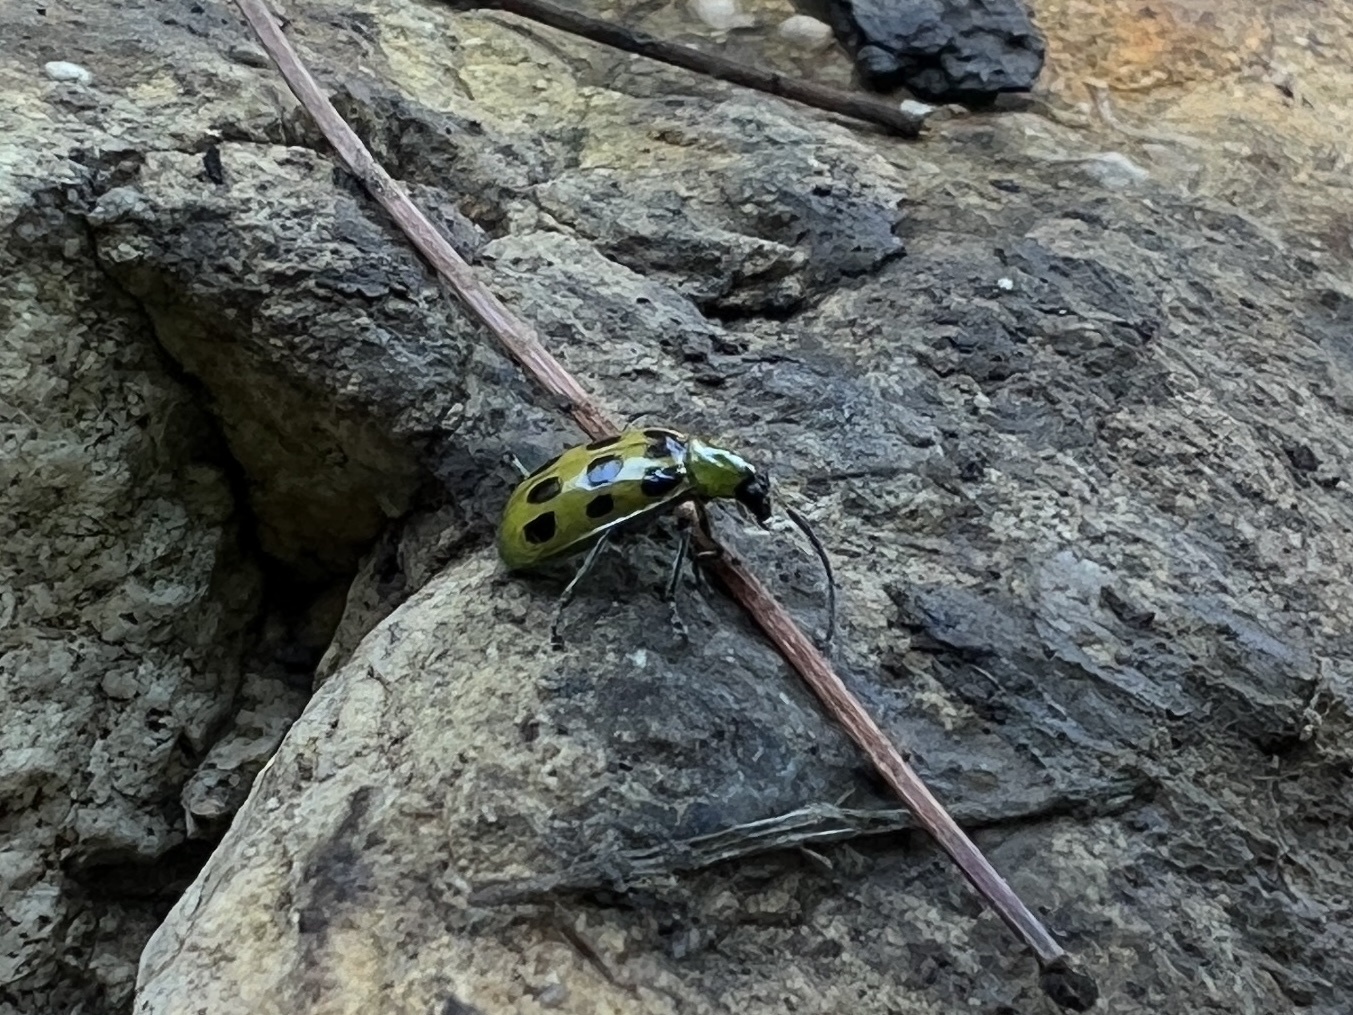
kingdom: Animalia
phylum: Arthropoda
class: Insecta
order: Coleoptera
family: Chrysomelidae
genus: Diabrotica
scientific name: Diabrotica undecimpunctata
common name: Spotted cucumber beetle
